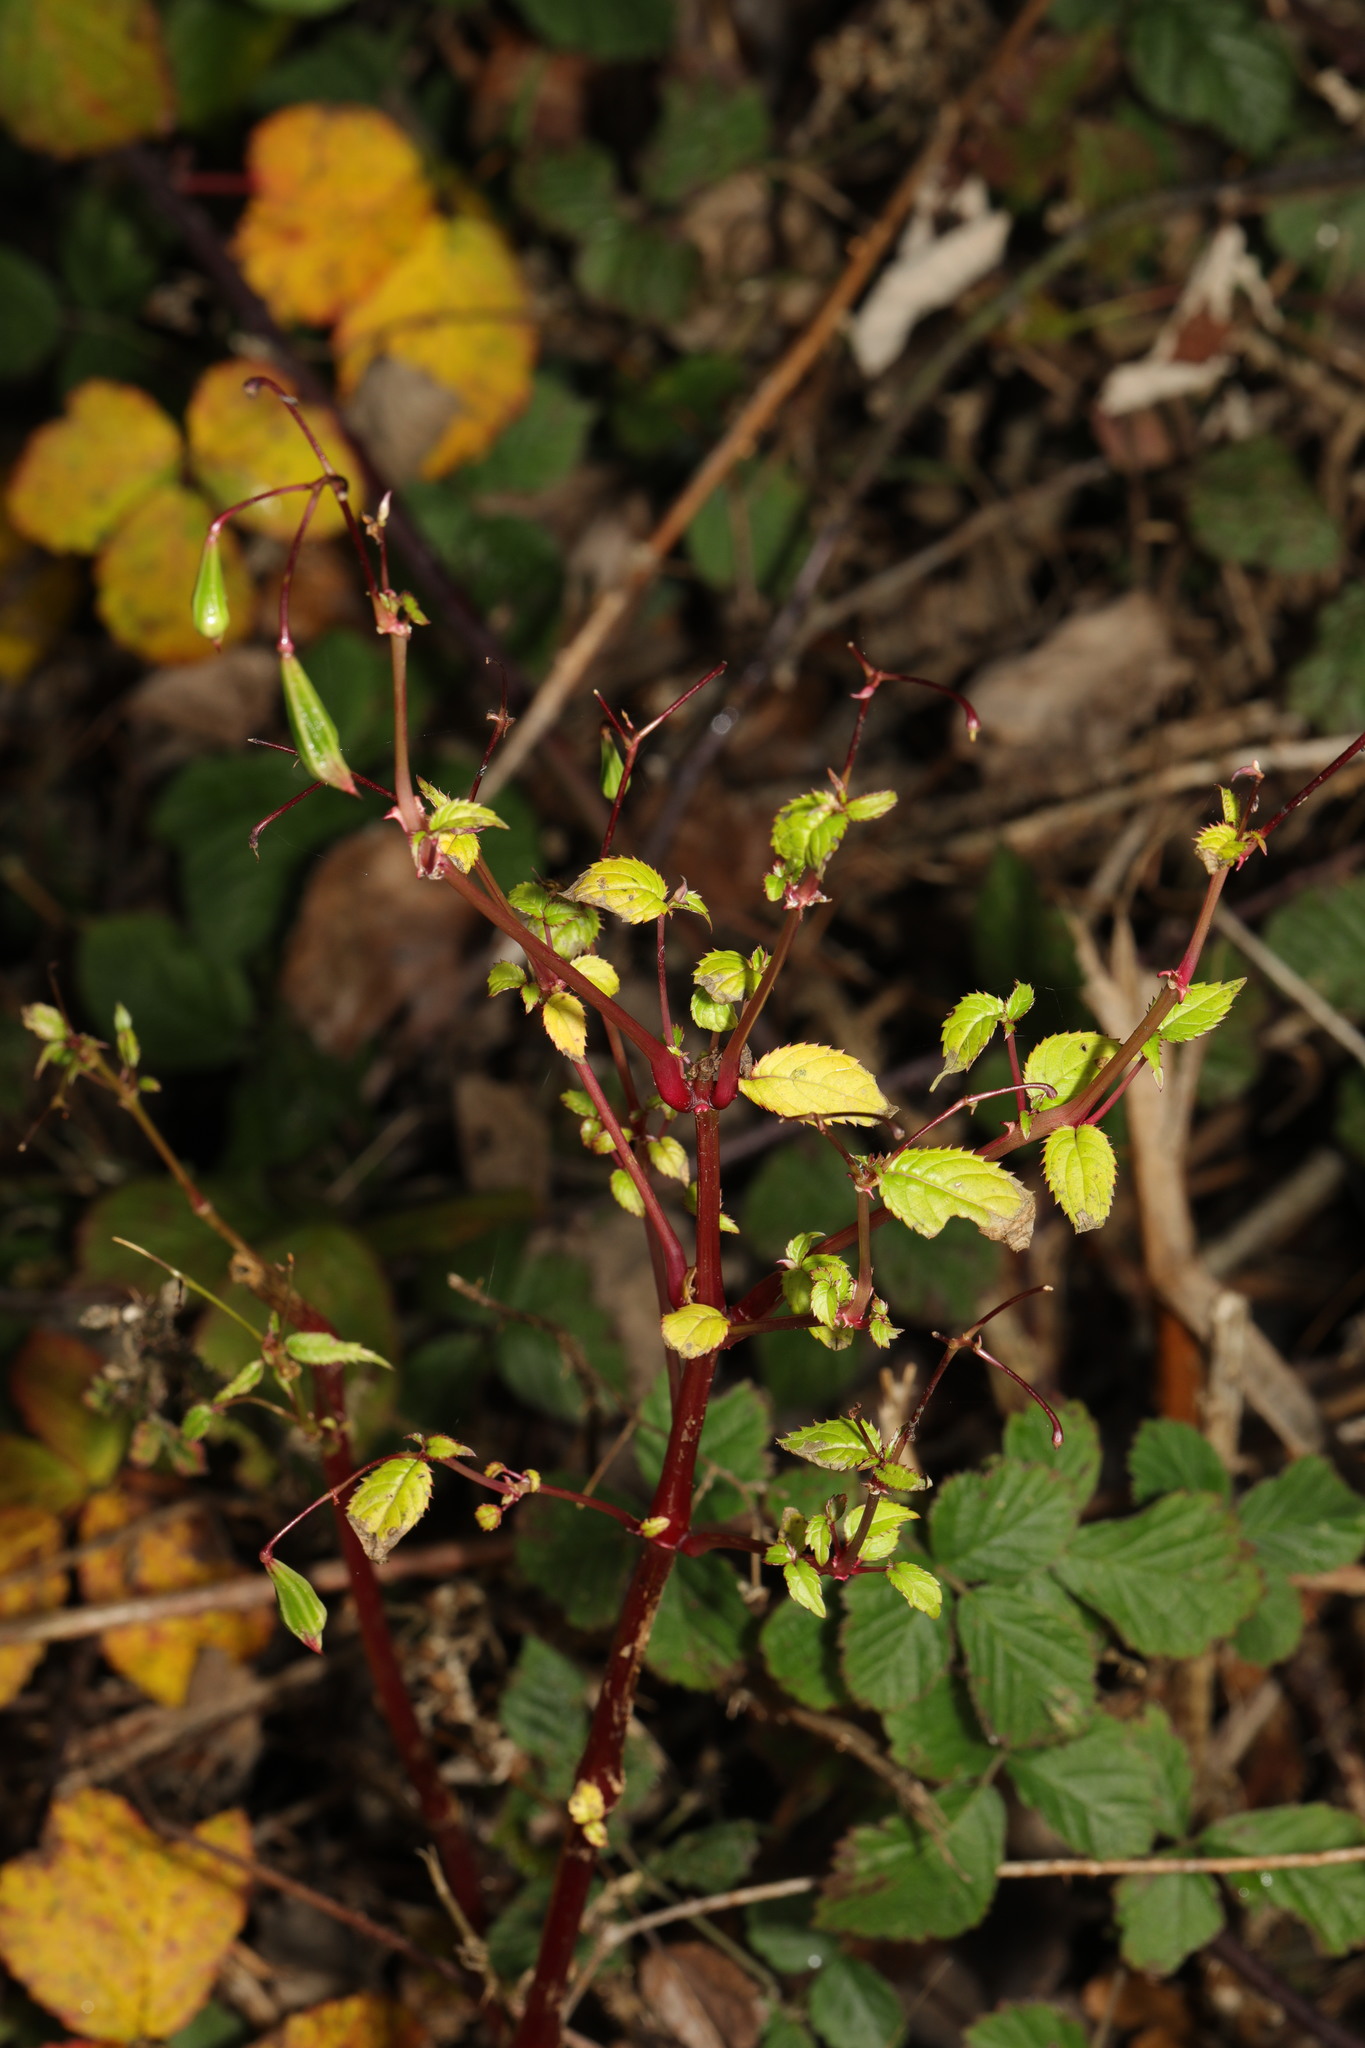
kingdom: Plantae
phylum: Tracheophyta
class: Magnoliopsida
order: Ericales
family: Balsaminaceae
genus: Impatiens
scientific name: Impatiens glandulifera
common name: Himalayan balsam
